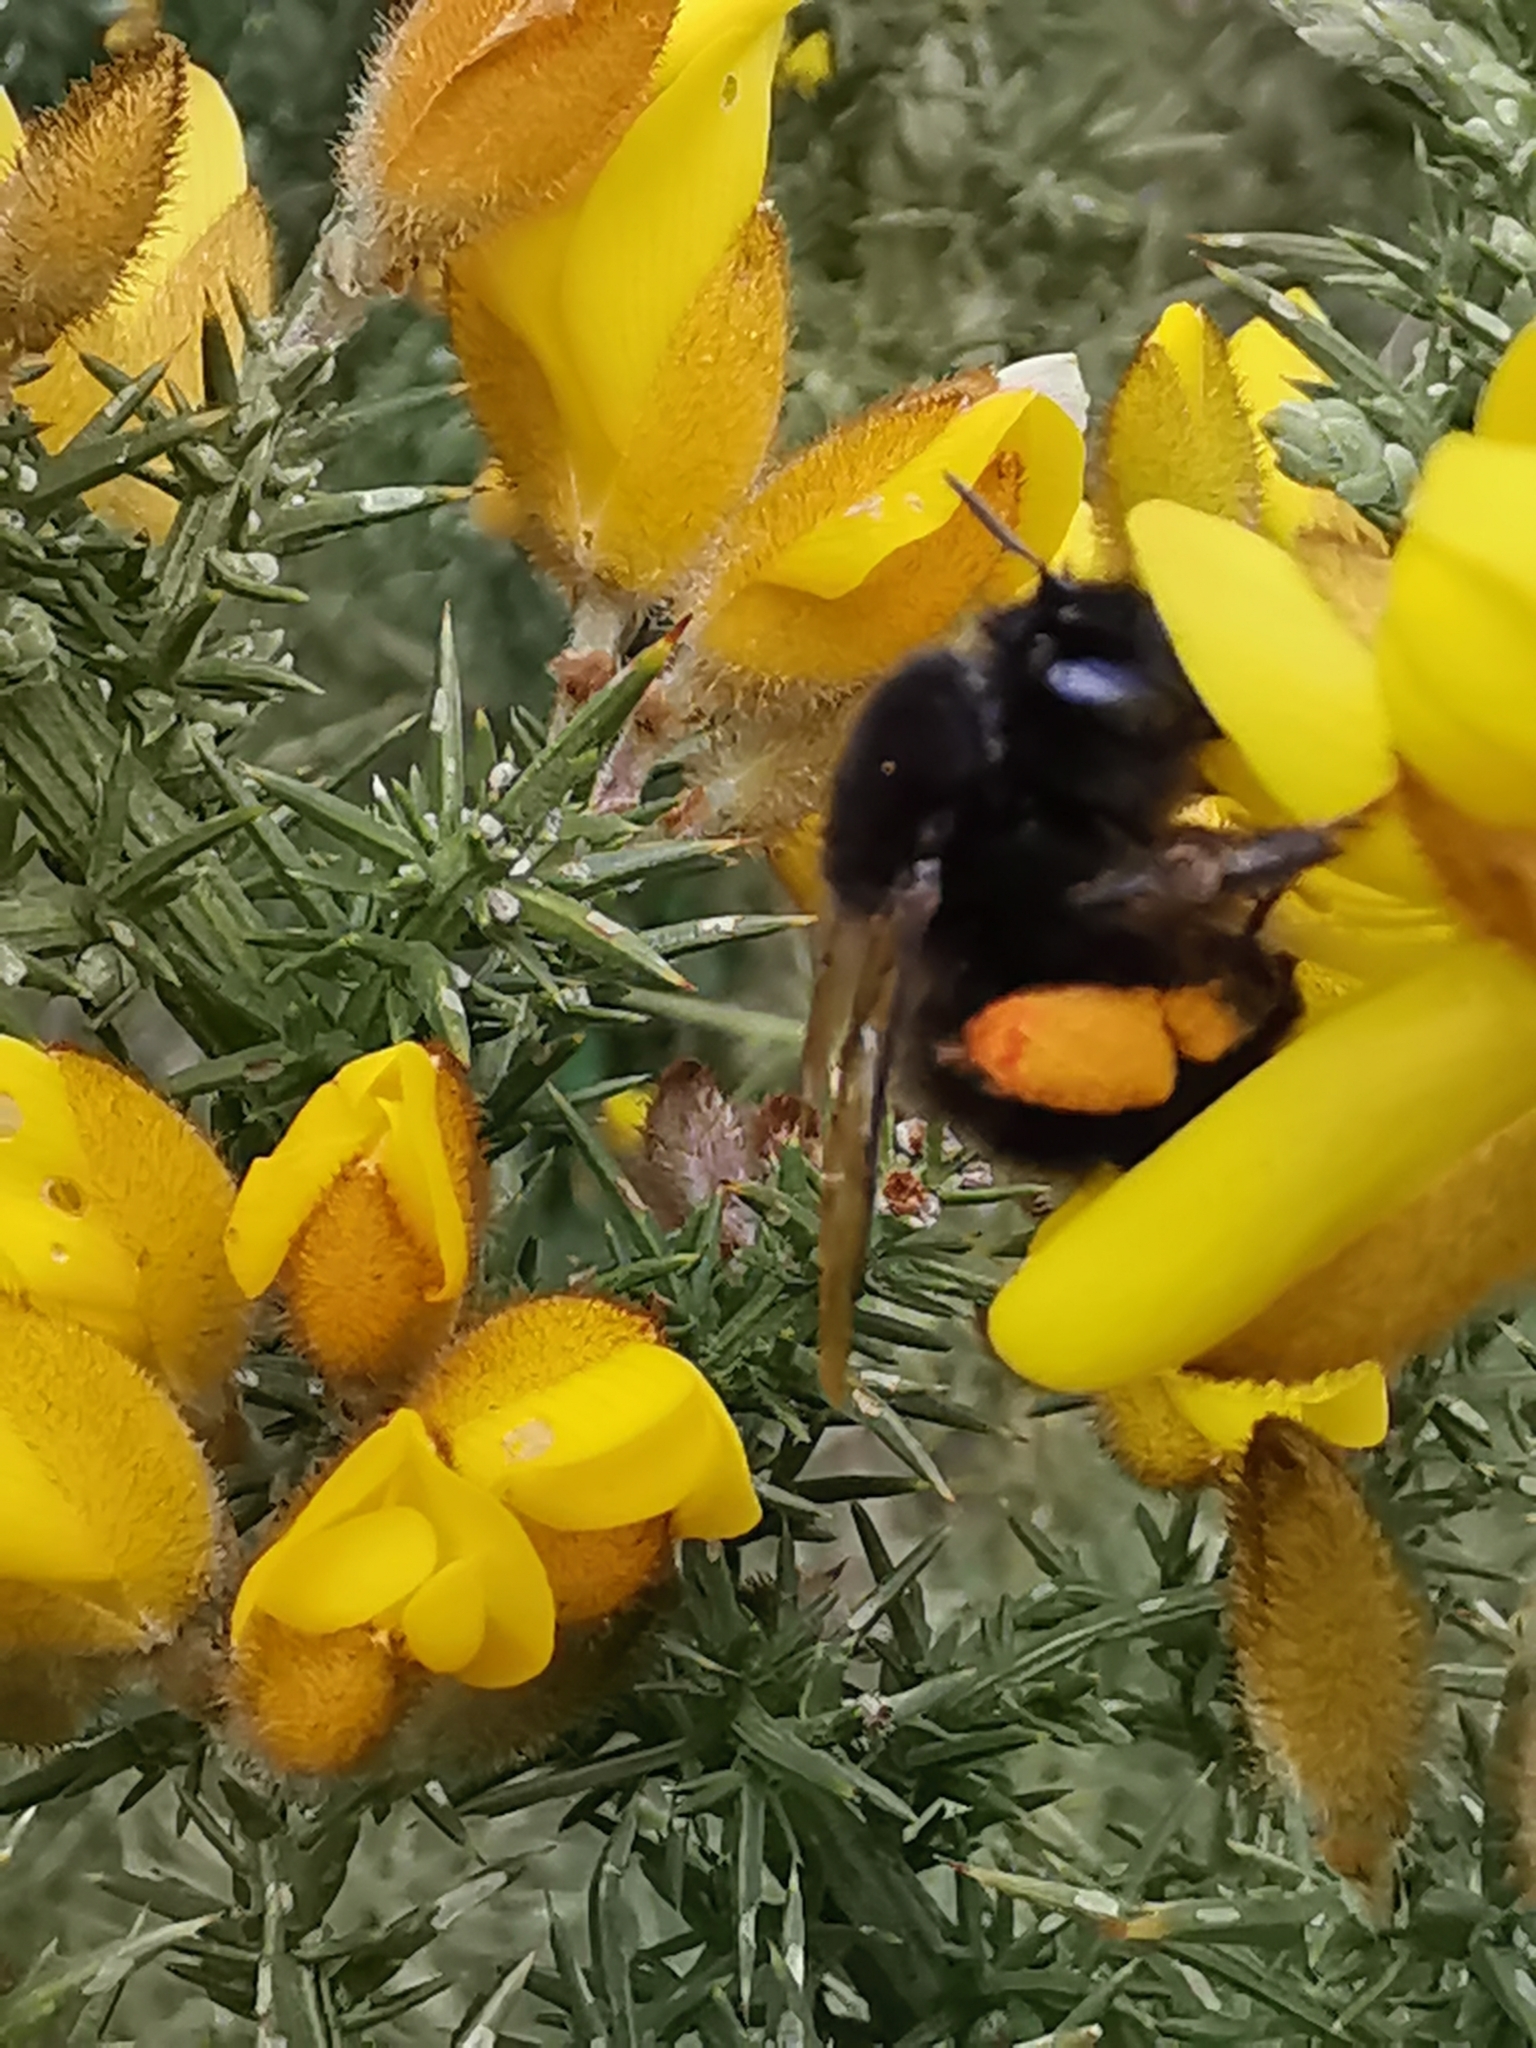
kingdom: Animalia
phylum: Arthropoda
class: Insecta
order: Hymenoptera
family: Apidae
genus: Anthophora
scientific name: Anthophora plumipes
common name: Hairy-footed flower bee
